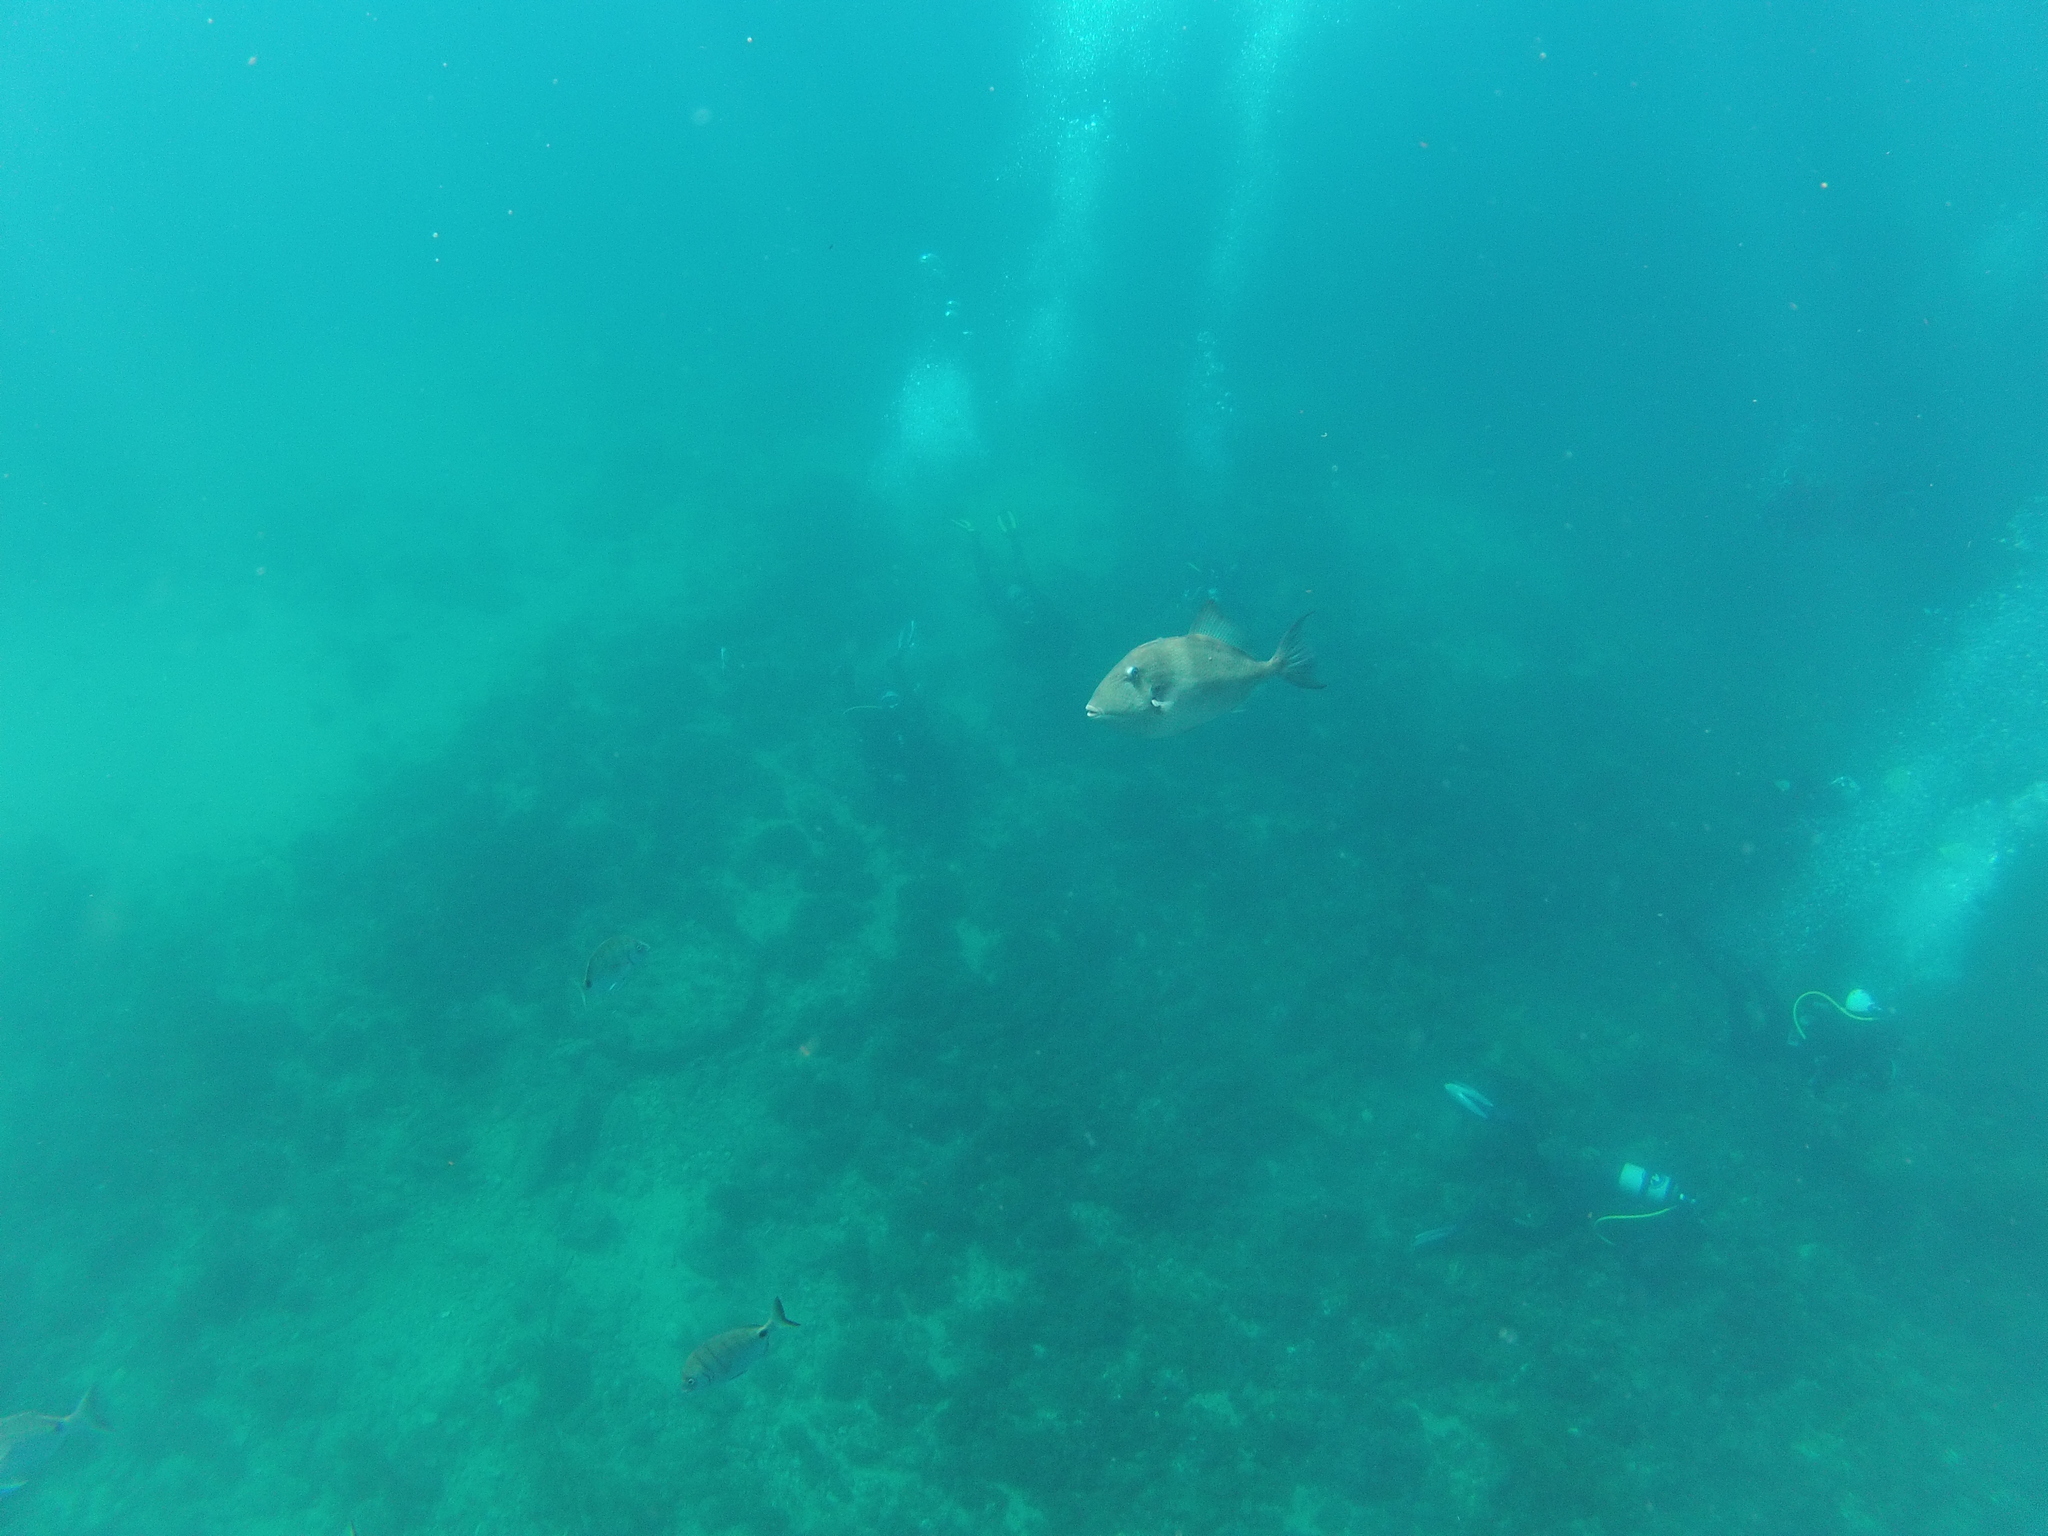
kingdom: Animalia
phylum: Chordata
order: Tetraodontiformes
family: Balistidae
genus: Balistes
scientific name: Balistes capriscus
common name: Grey triggerfish
